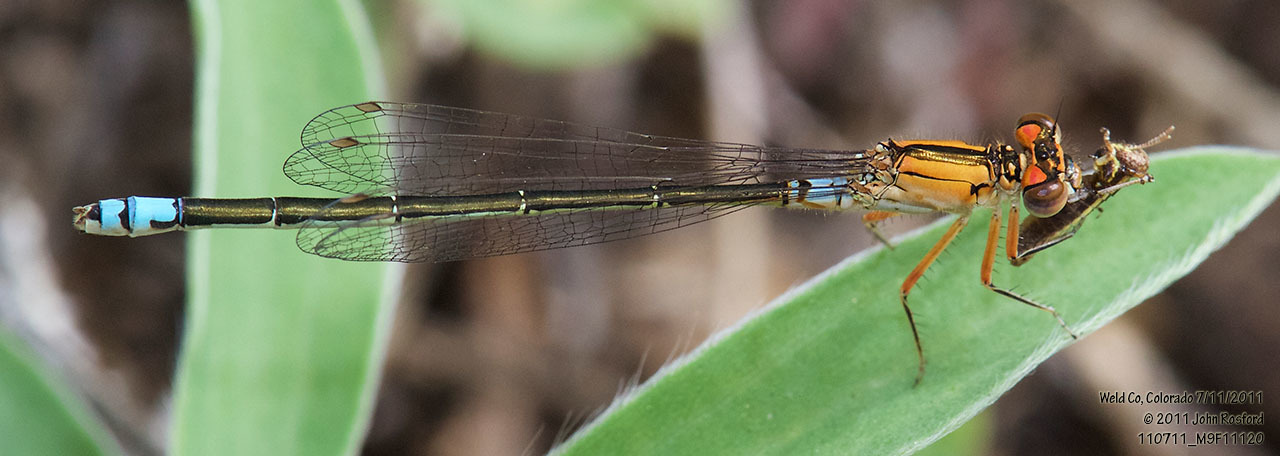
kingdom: Animalia
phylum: Arthropoda
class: Insecta
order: Odonata
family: Coenagrionidae
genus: Ischnura
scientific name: Ischnura damula
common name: Plains forktail
